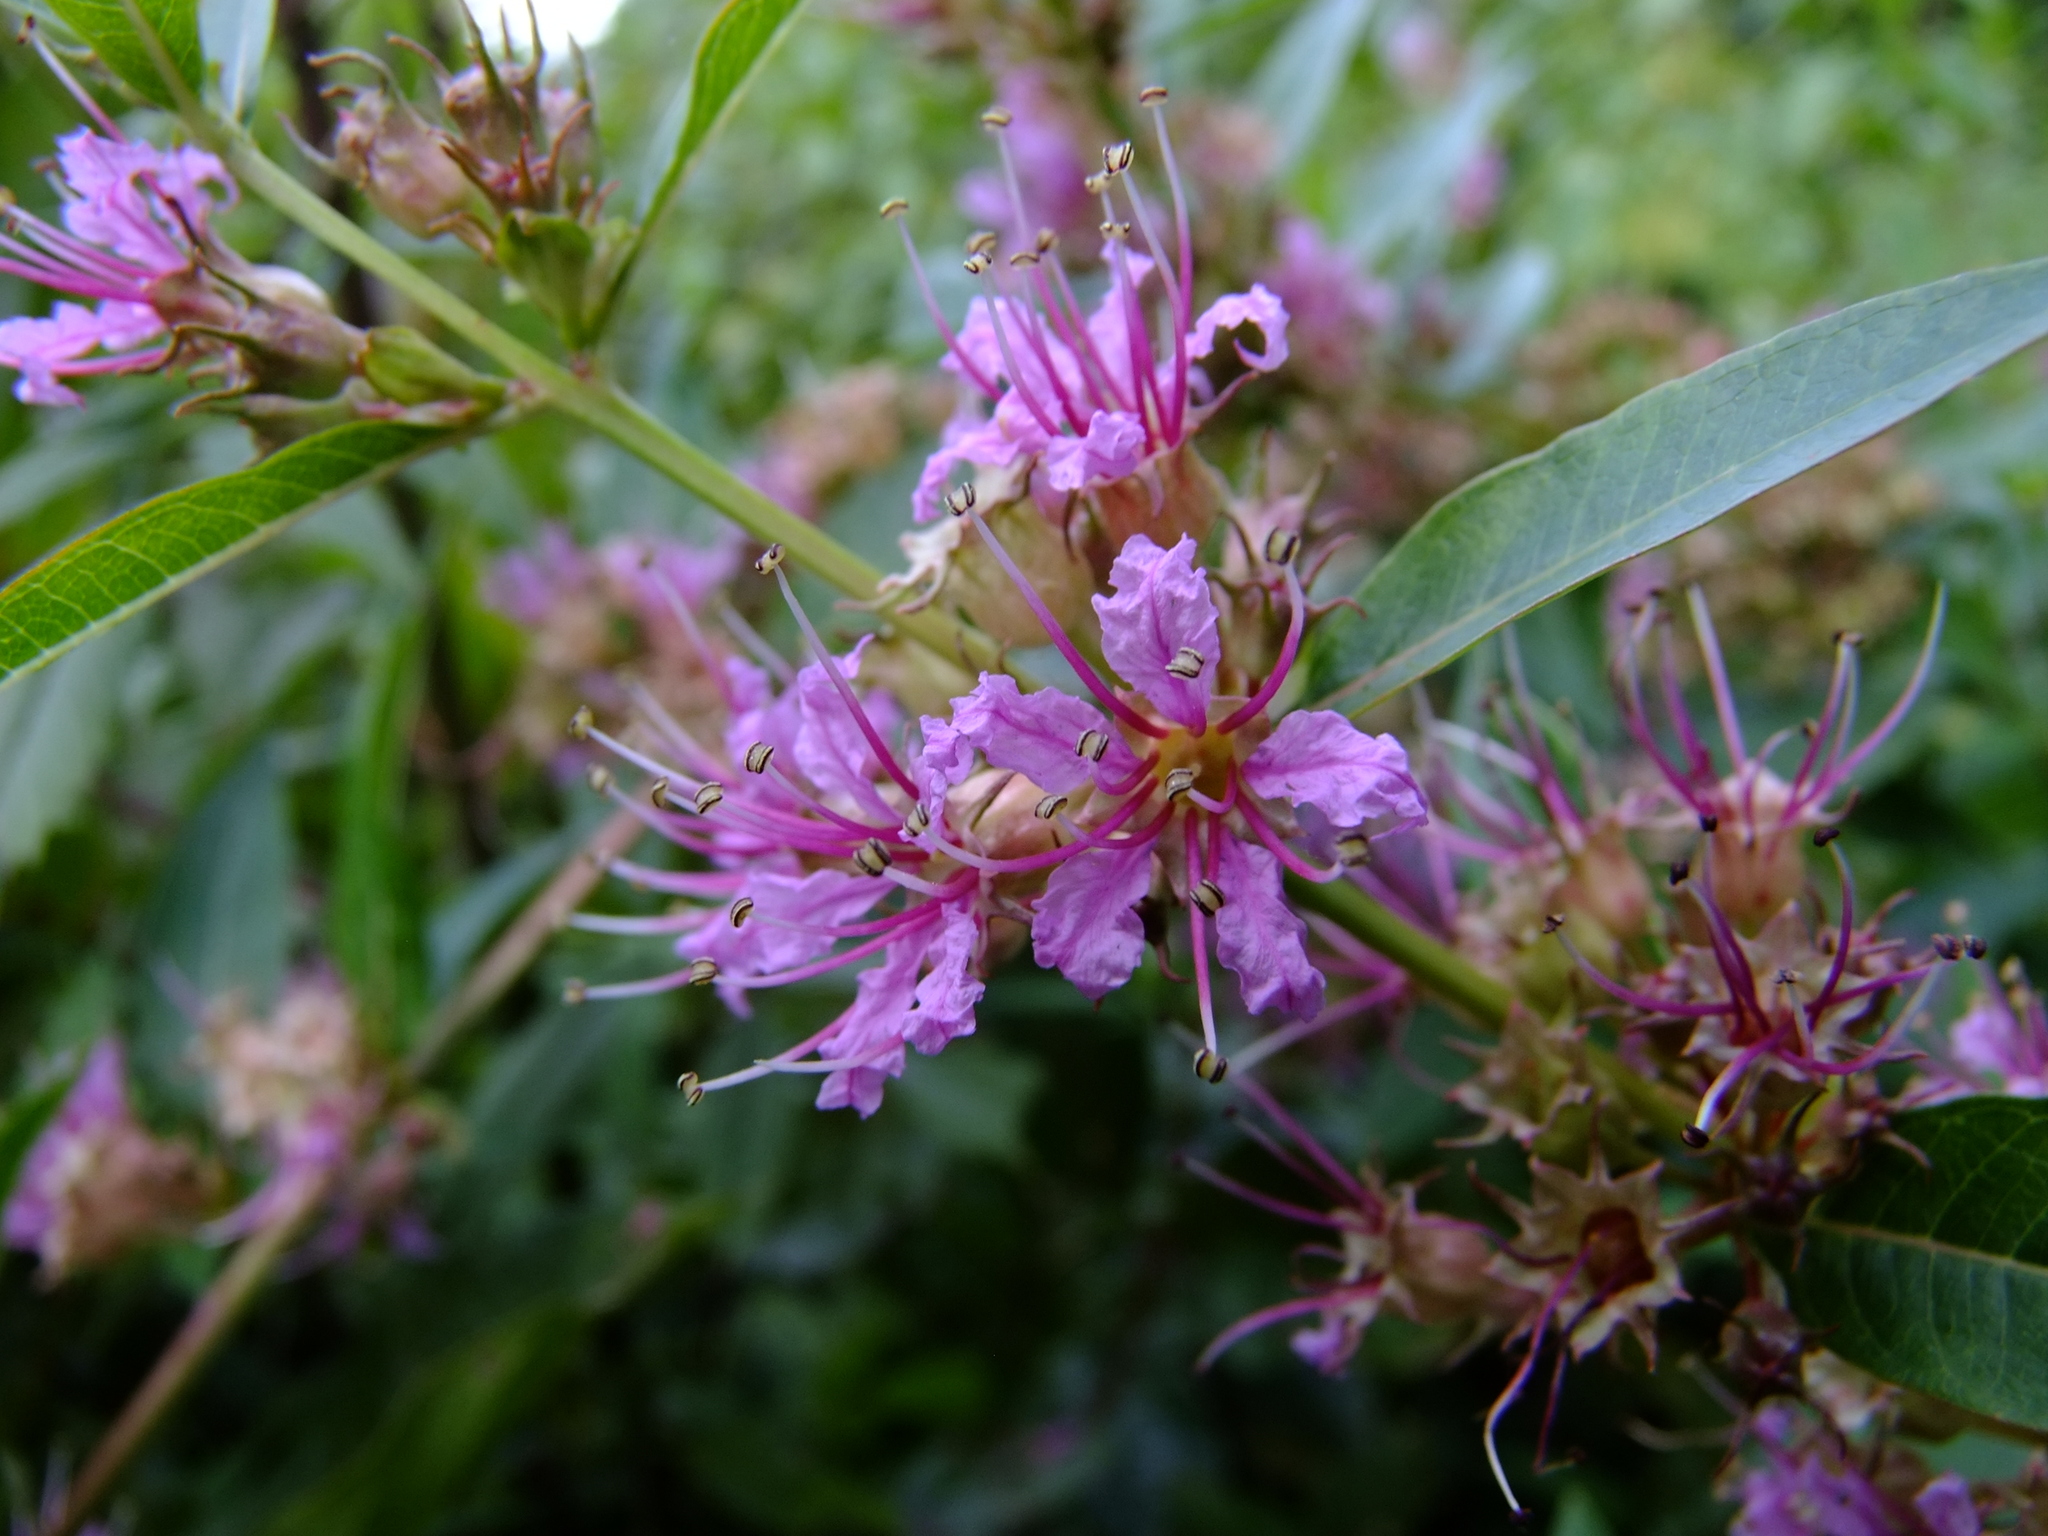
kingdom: Plantae
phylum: Tracheophyta
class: Magnoliopsida
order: Myrtales
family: Lythraceae
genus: Decodon
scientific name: Decodon verticillatus
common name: Hairy swamp loosestrife
